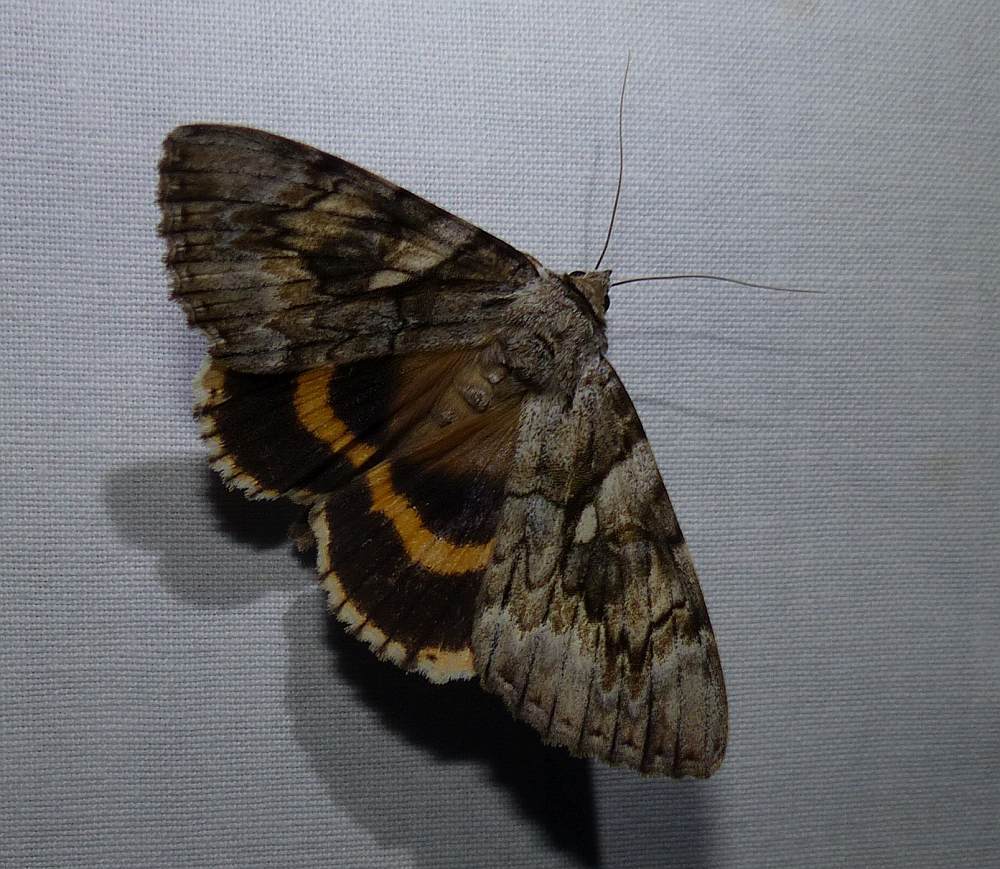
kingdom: Animalia
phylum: Arthropoda
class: Insecta
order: Lepidoptera
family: Erebidae
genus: Catocala
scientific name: Catocala cerogama
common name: Yellow banded underwing
